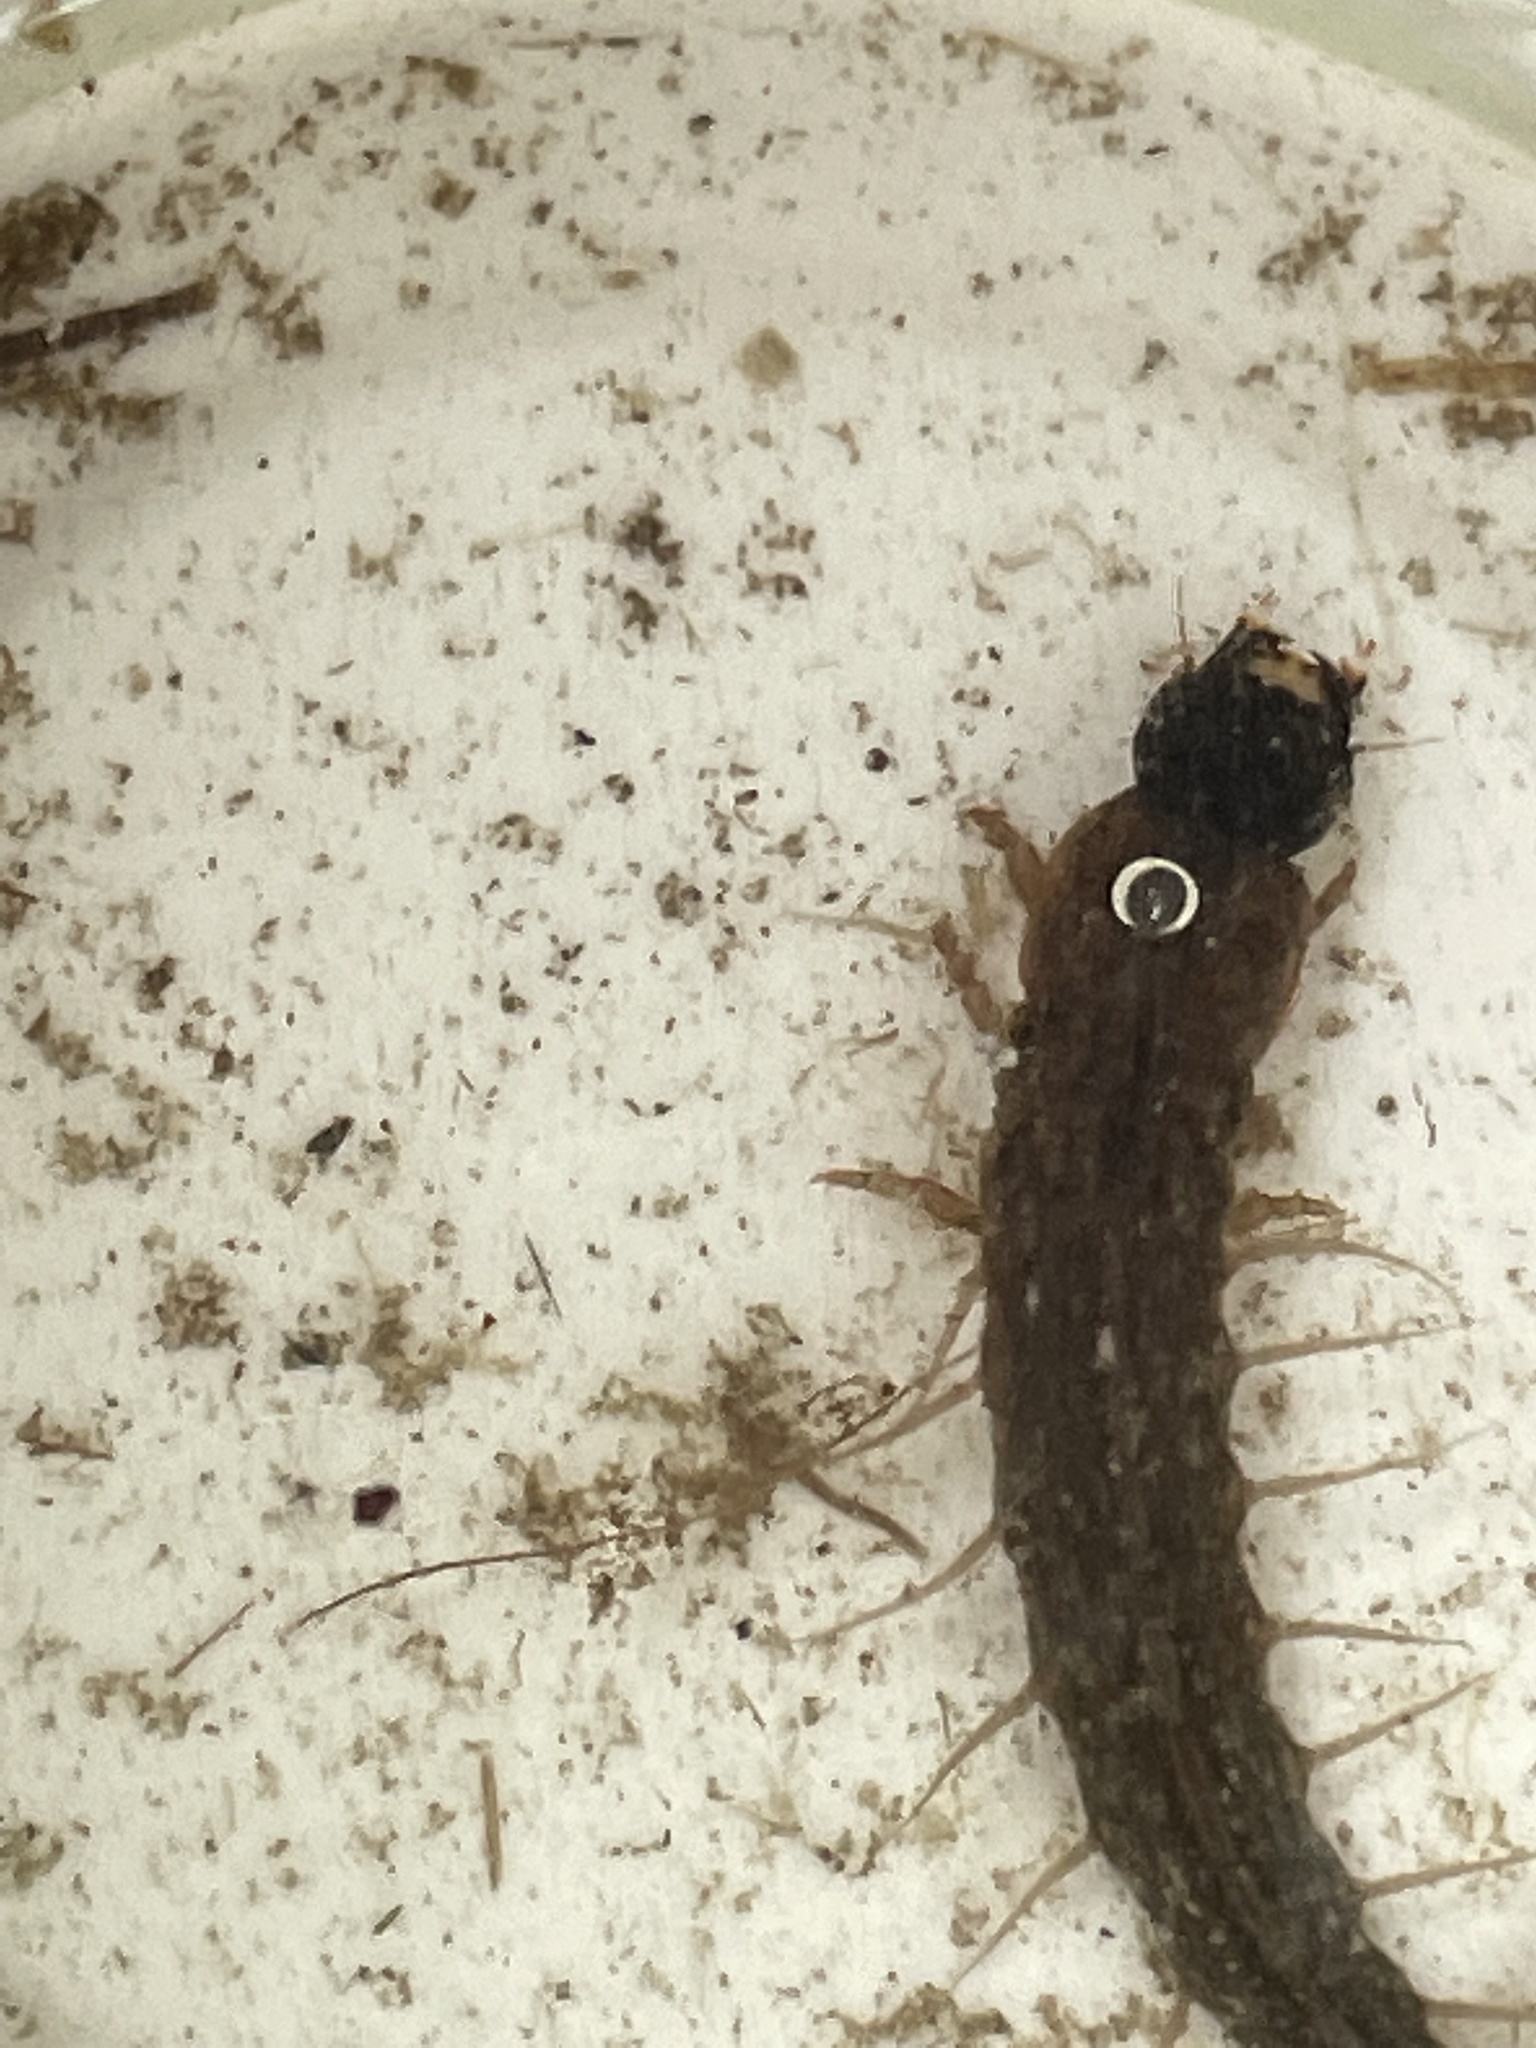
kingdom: Animalia
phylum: Arthropoda
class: Insecta
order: Megaloptera
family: Corydalidae
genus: Chauliodes
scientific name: Chauliodes pectinicornis
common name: Summer fishfly
